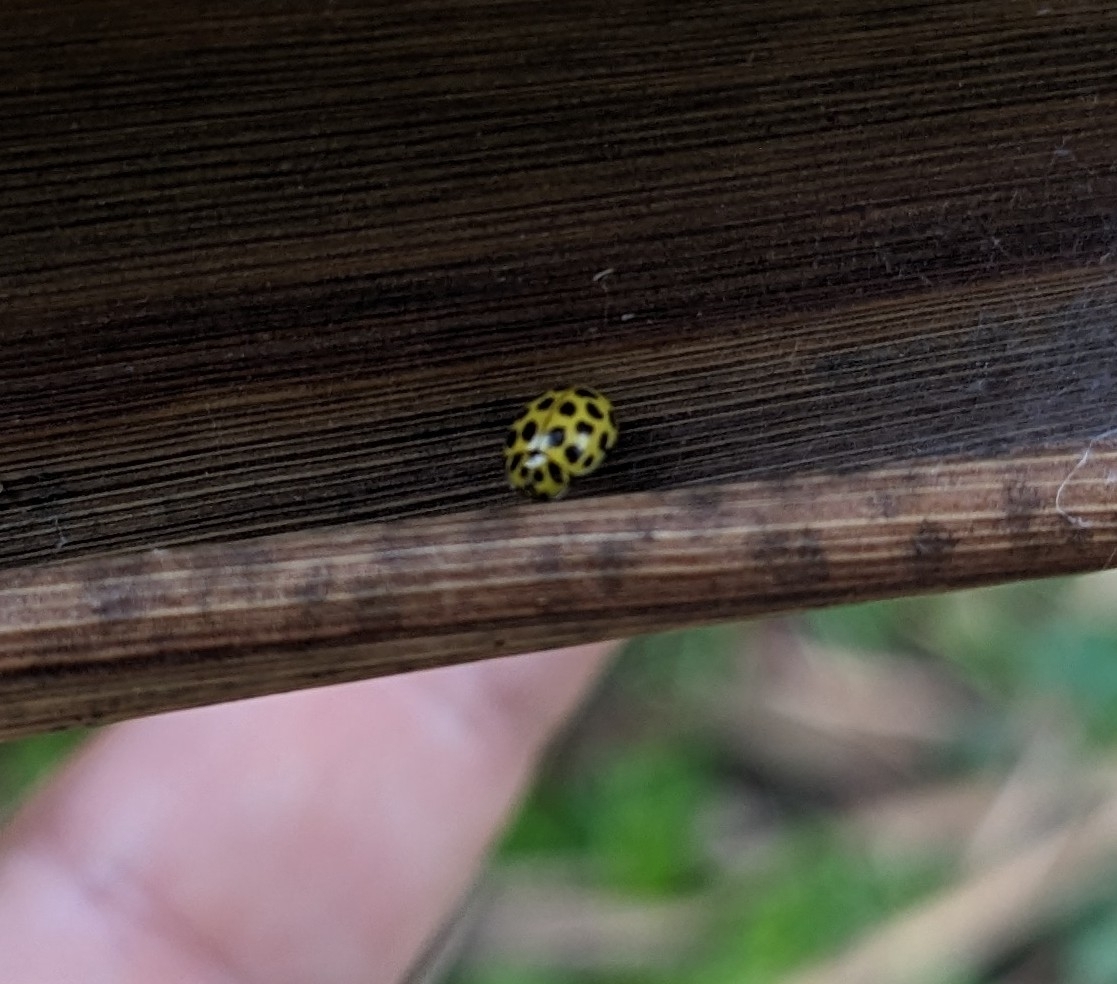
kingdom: Animalia
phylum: Arthropoda
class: Insecta
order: Coleoptera
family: Coccinellidae
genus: Psyllobora
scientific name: Psyllobora vigintiduopunctata
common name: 22-spot ladybird
